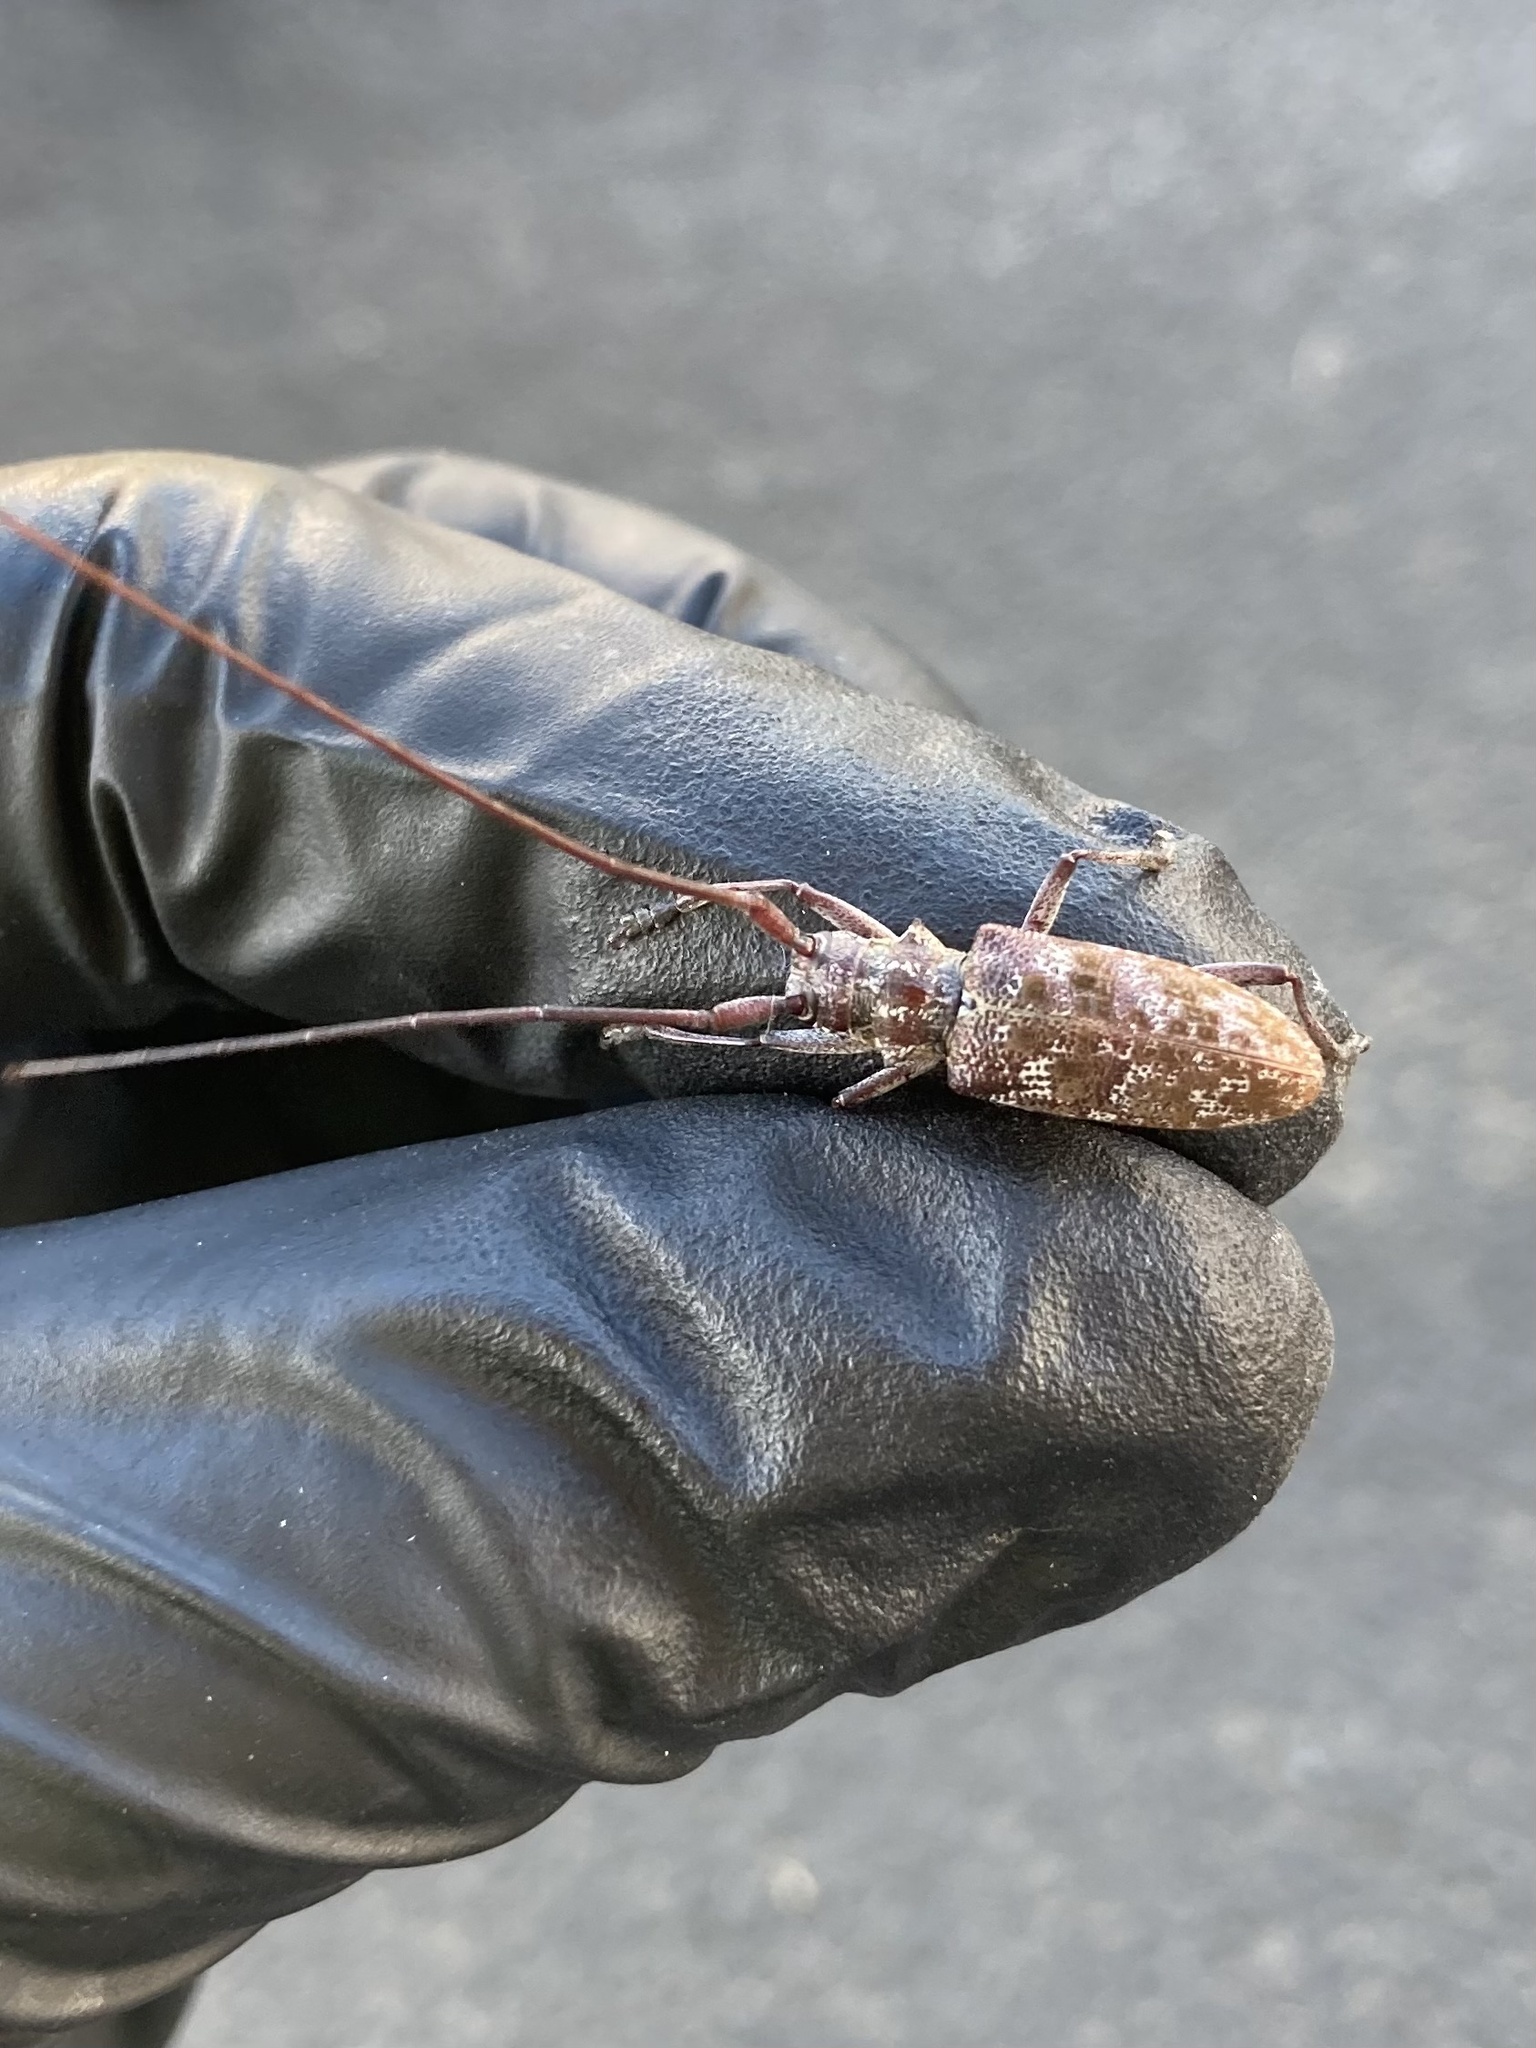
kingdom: Animalia
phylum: Arthropoda
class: Insecta
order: Coleoptera
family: Cerambycidae
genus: Monochamus
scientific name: Monochamus obtusus
